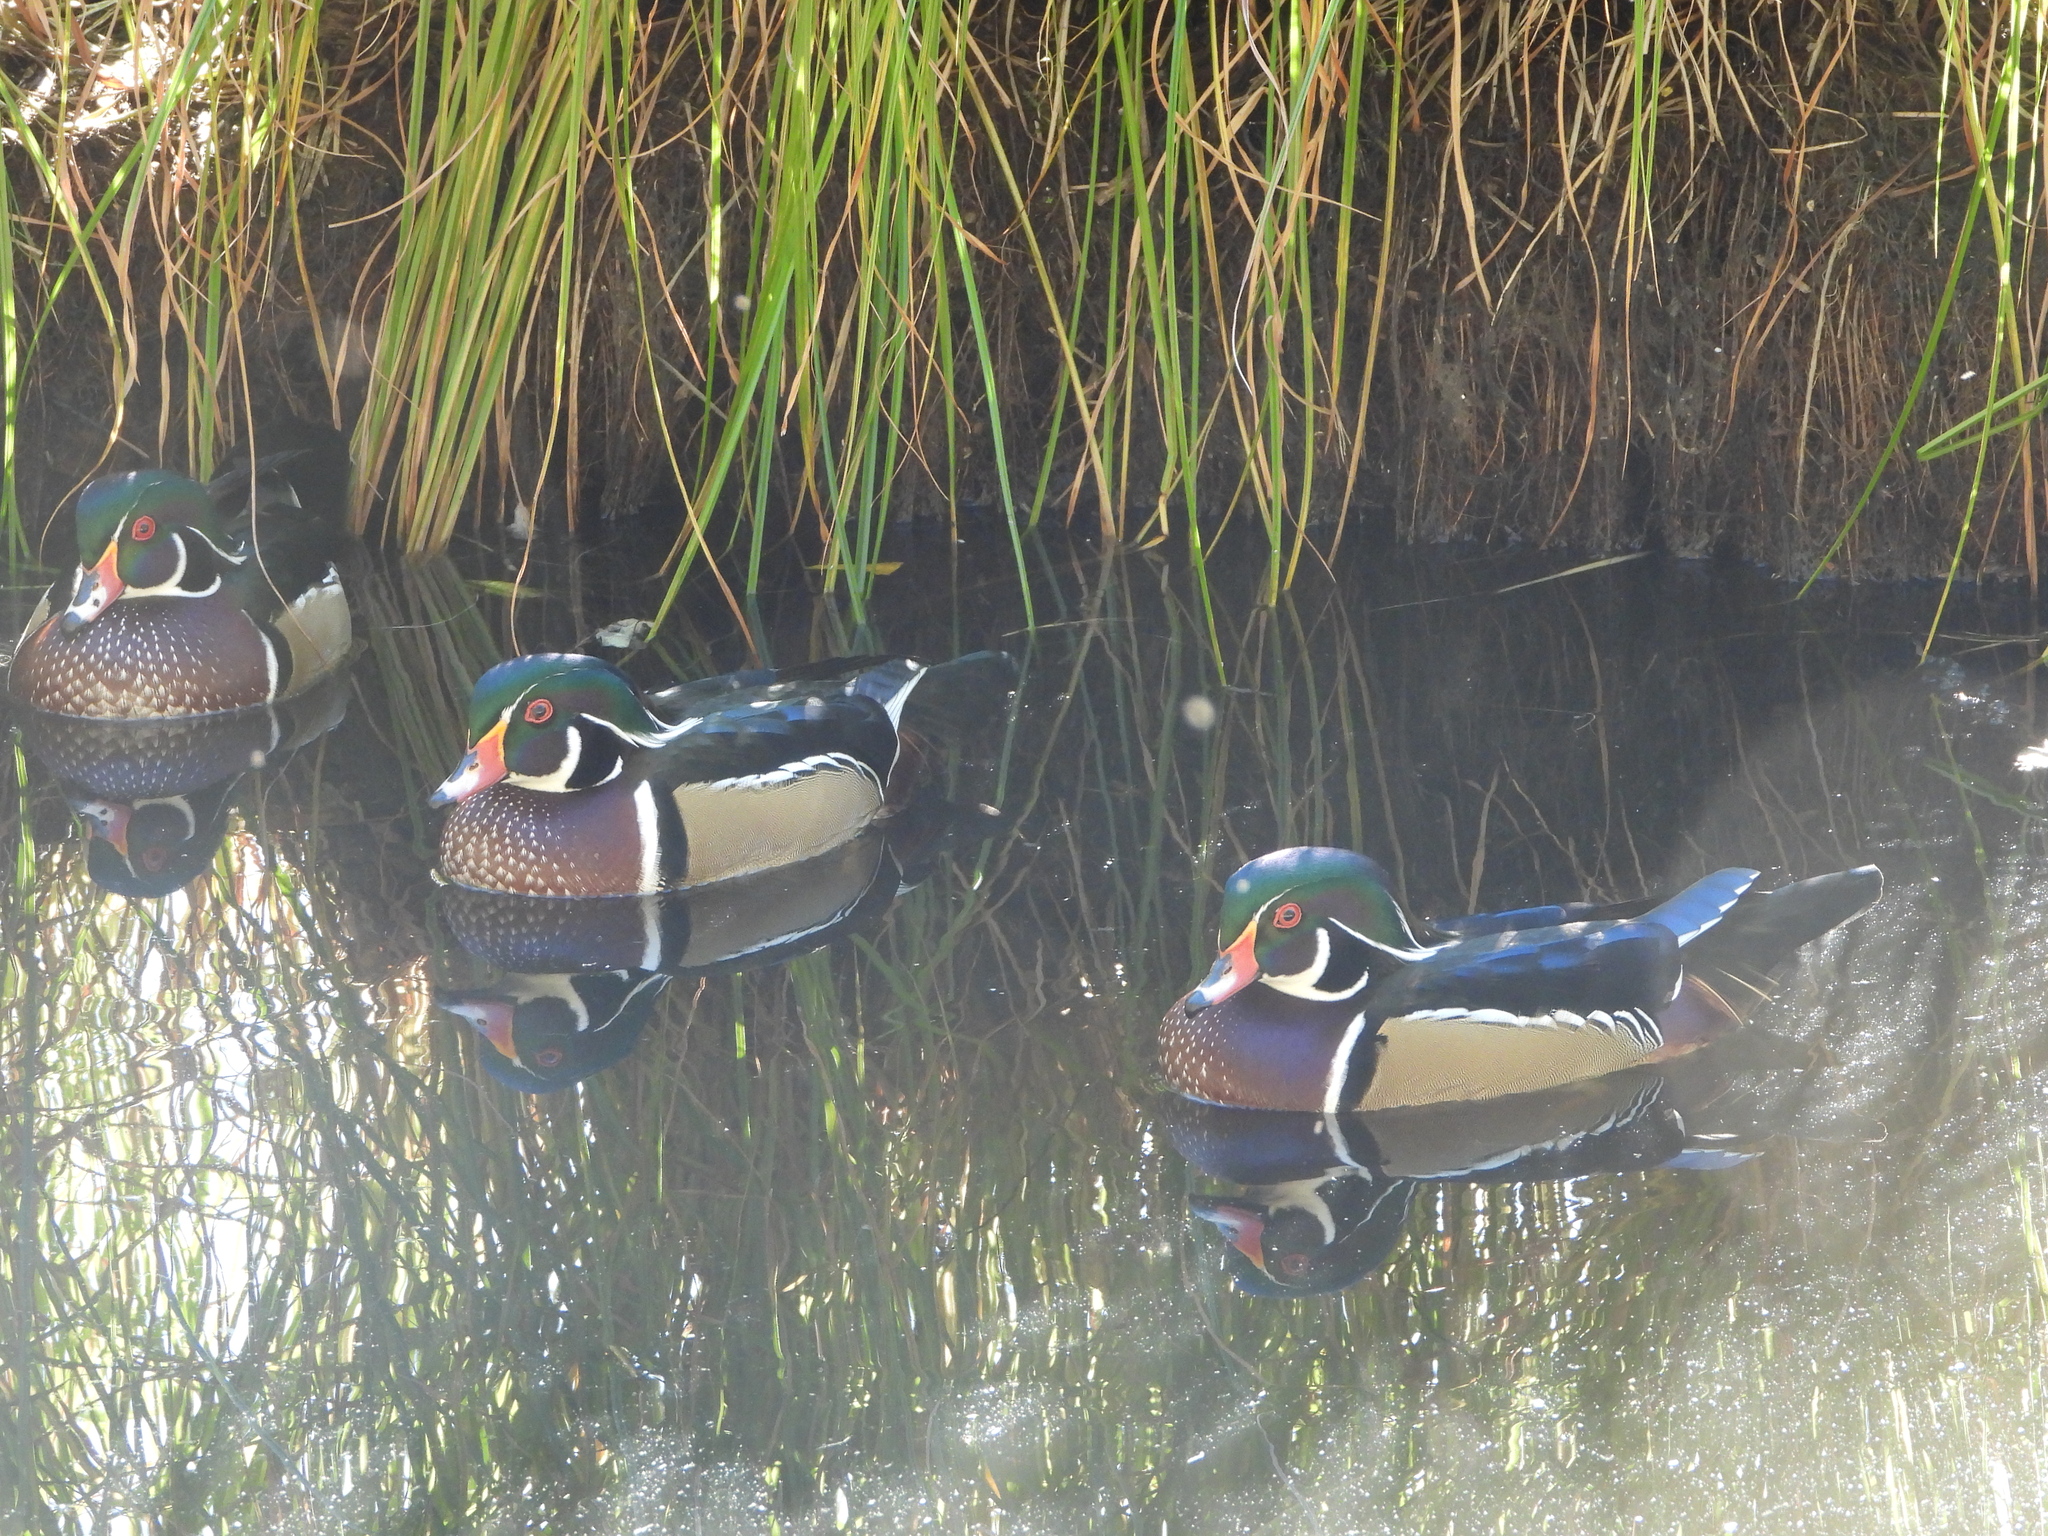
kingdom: Animalia
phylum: Chordata
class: Aves
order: Anseriformes
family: Anatidae
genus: Aix
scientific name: Aix sponsa
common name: Wood duck
